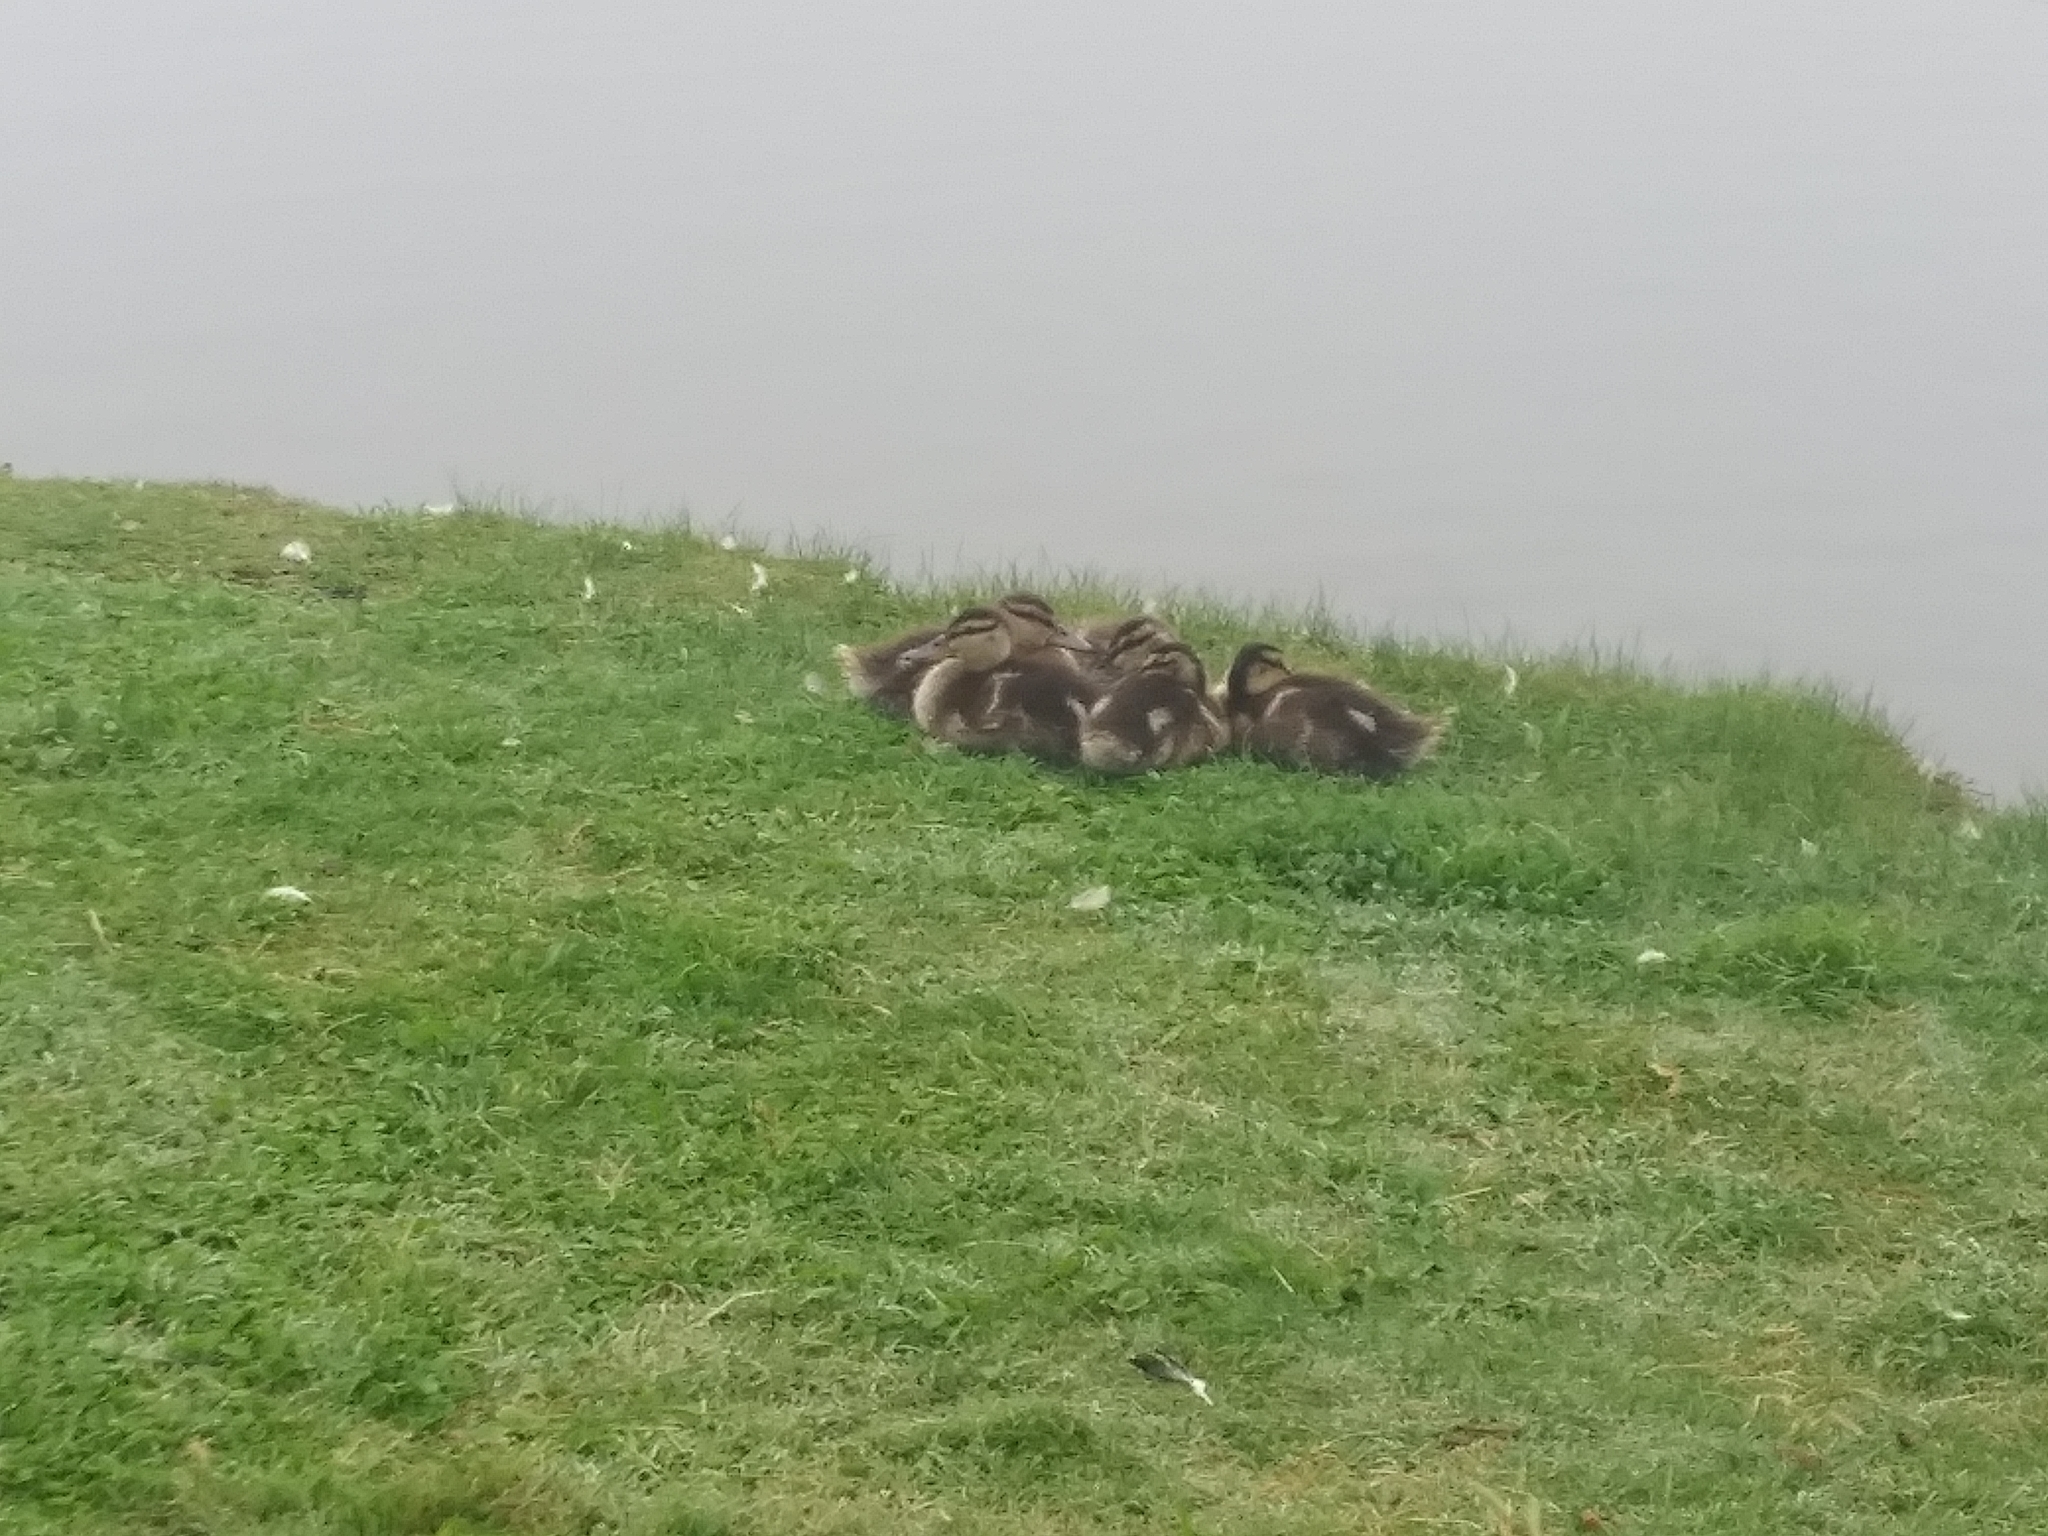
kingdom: Animalia
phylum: Chordata
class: Aves
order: Anseriformes
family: Anatidae
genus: Anas
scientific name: Anas platyrhynchos
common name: Mallard
